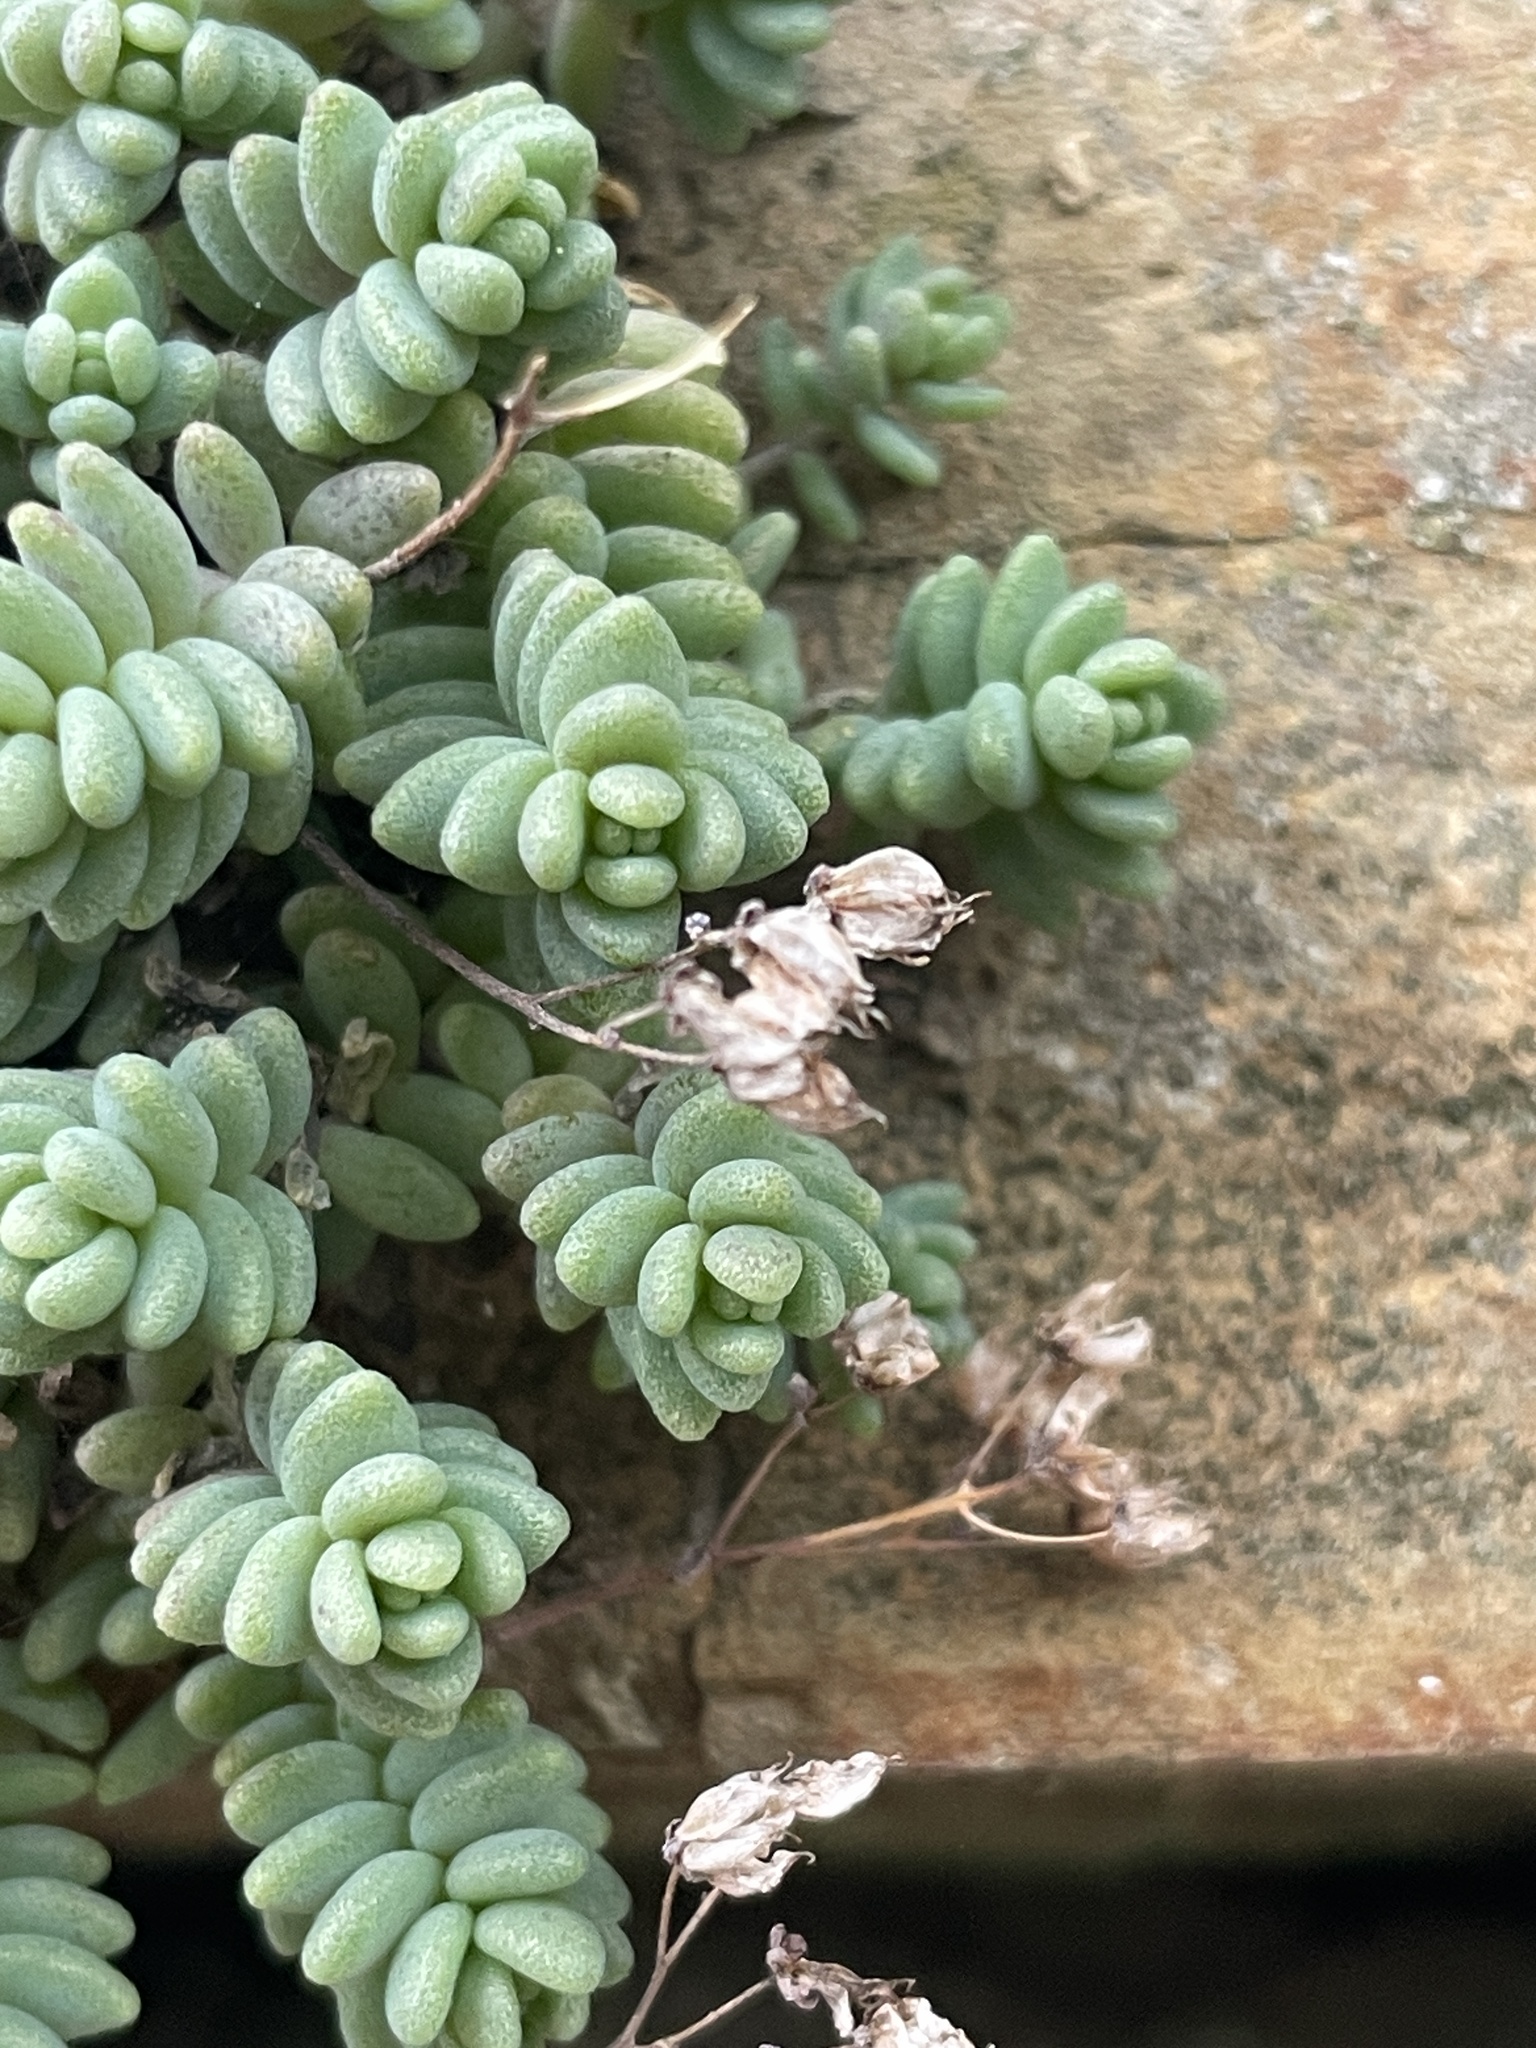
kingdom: Plantae
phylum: Tracheophyta
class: Magnoliopsida
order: Saxifragales
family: Crassulaceae
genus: Sedum
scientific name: Sedum dasyphyllum
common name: Thick-leaf stonecrop
